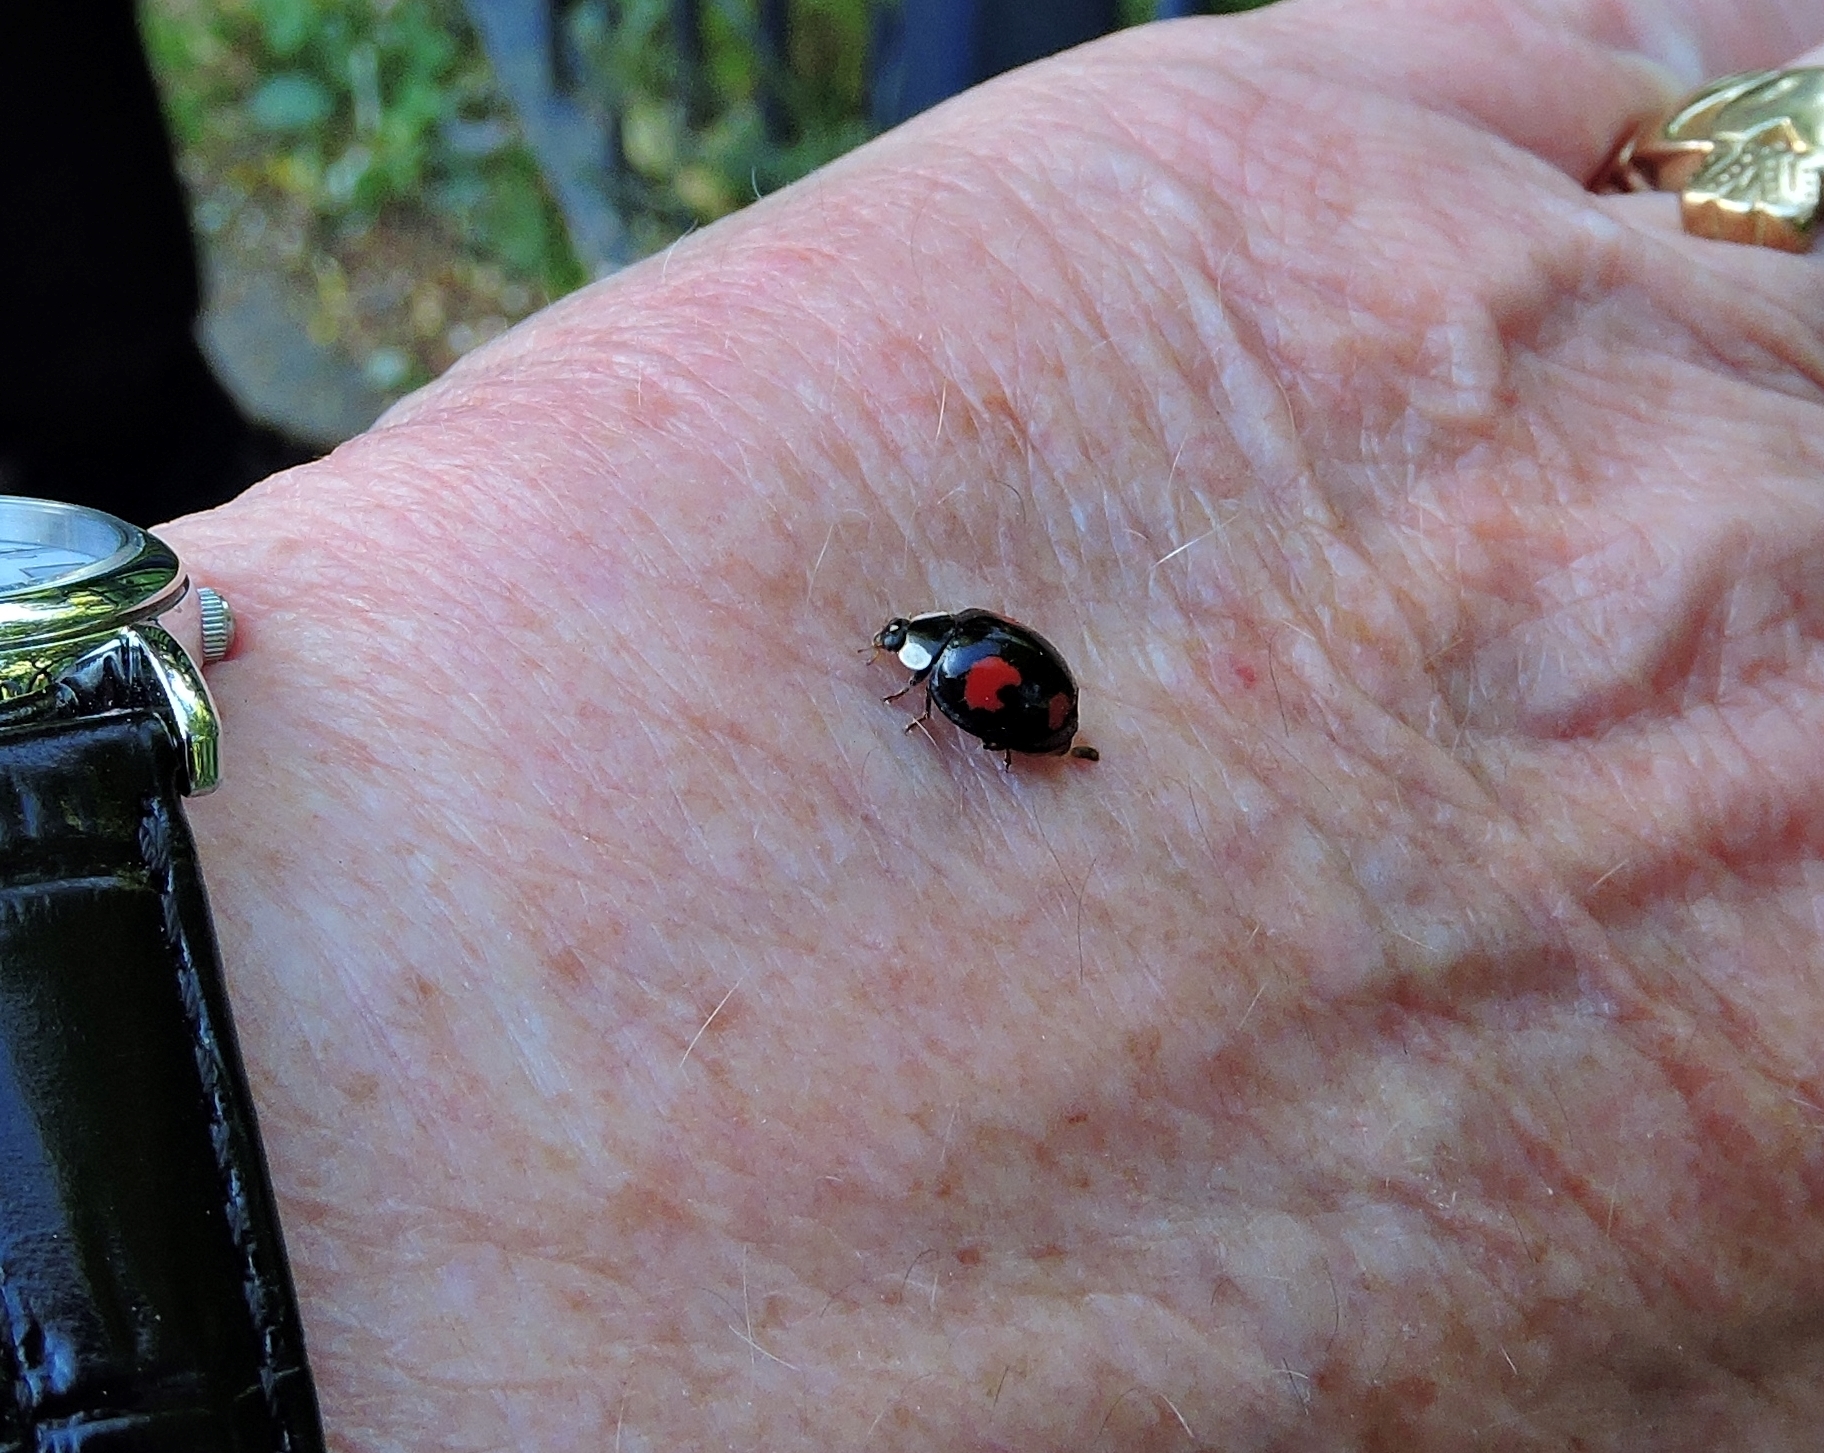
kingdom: Animalia
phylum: Arthropoda
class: Insecta
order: Coleoptera
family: Coccinellidae
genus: Harmonia
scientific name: Harmonia axyridis
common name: Harlequin ladybird
